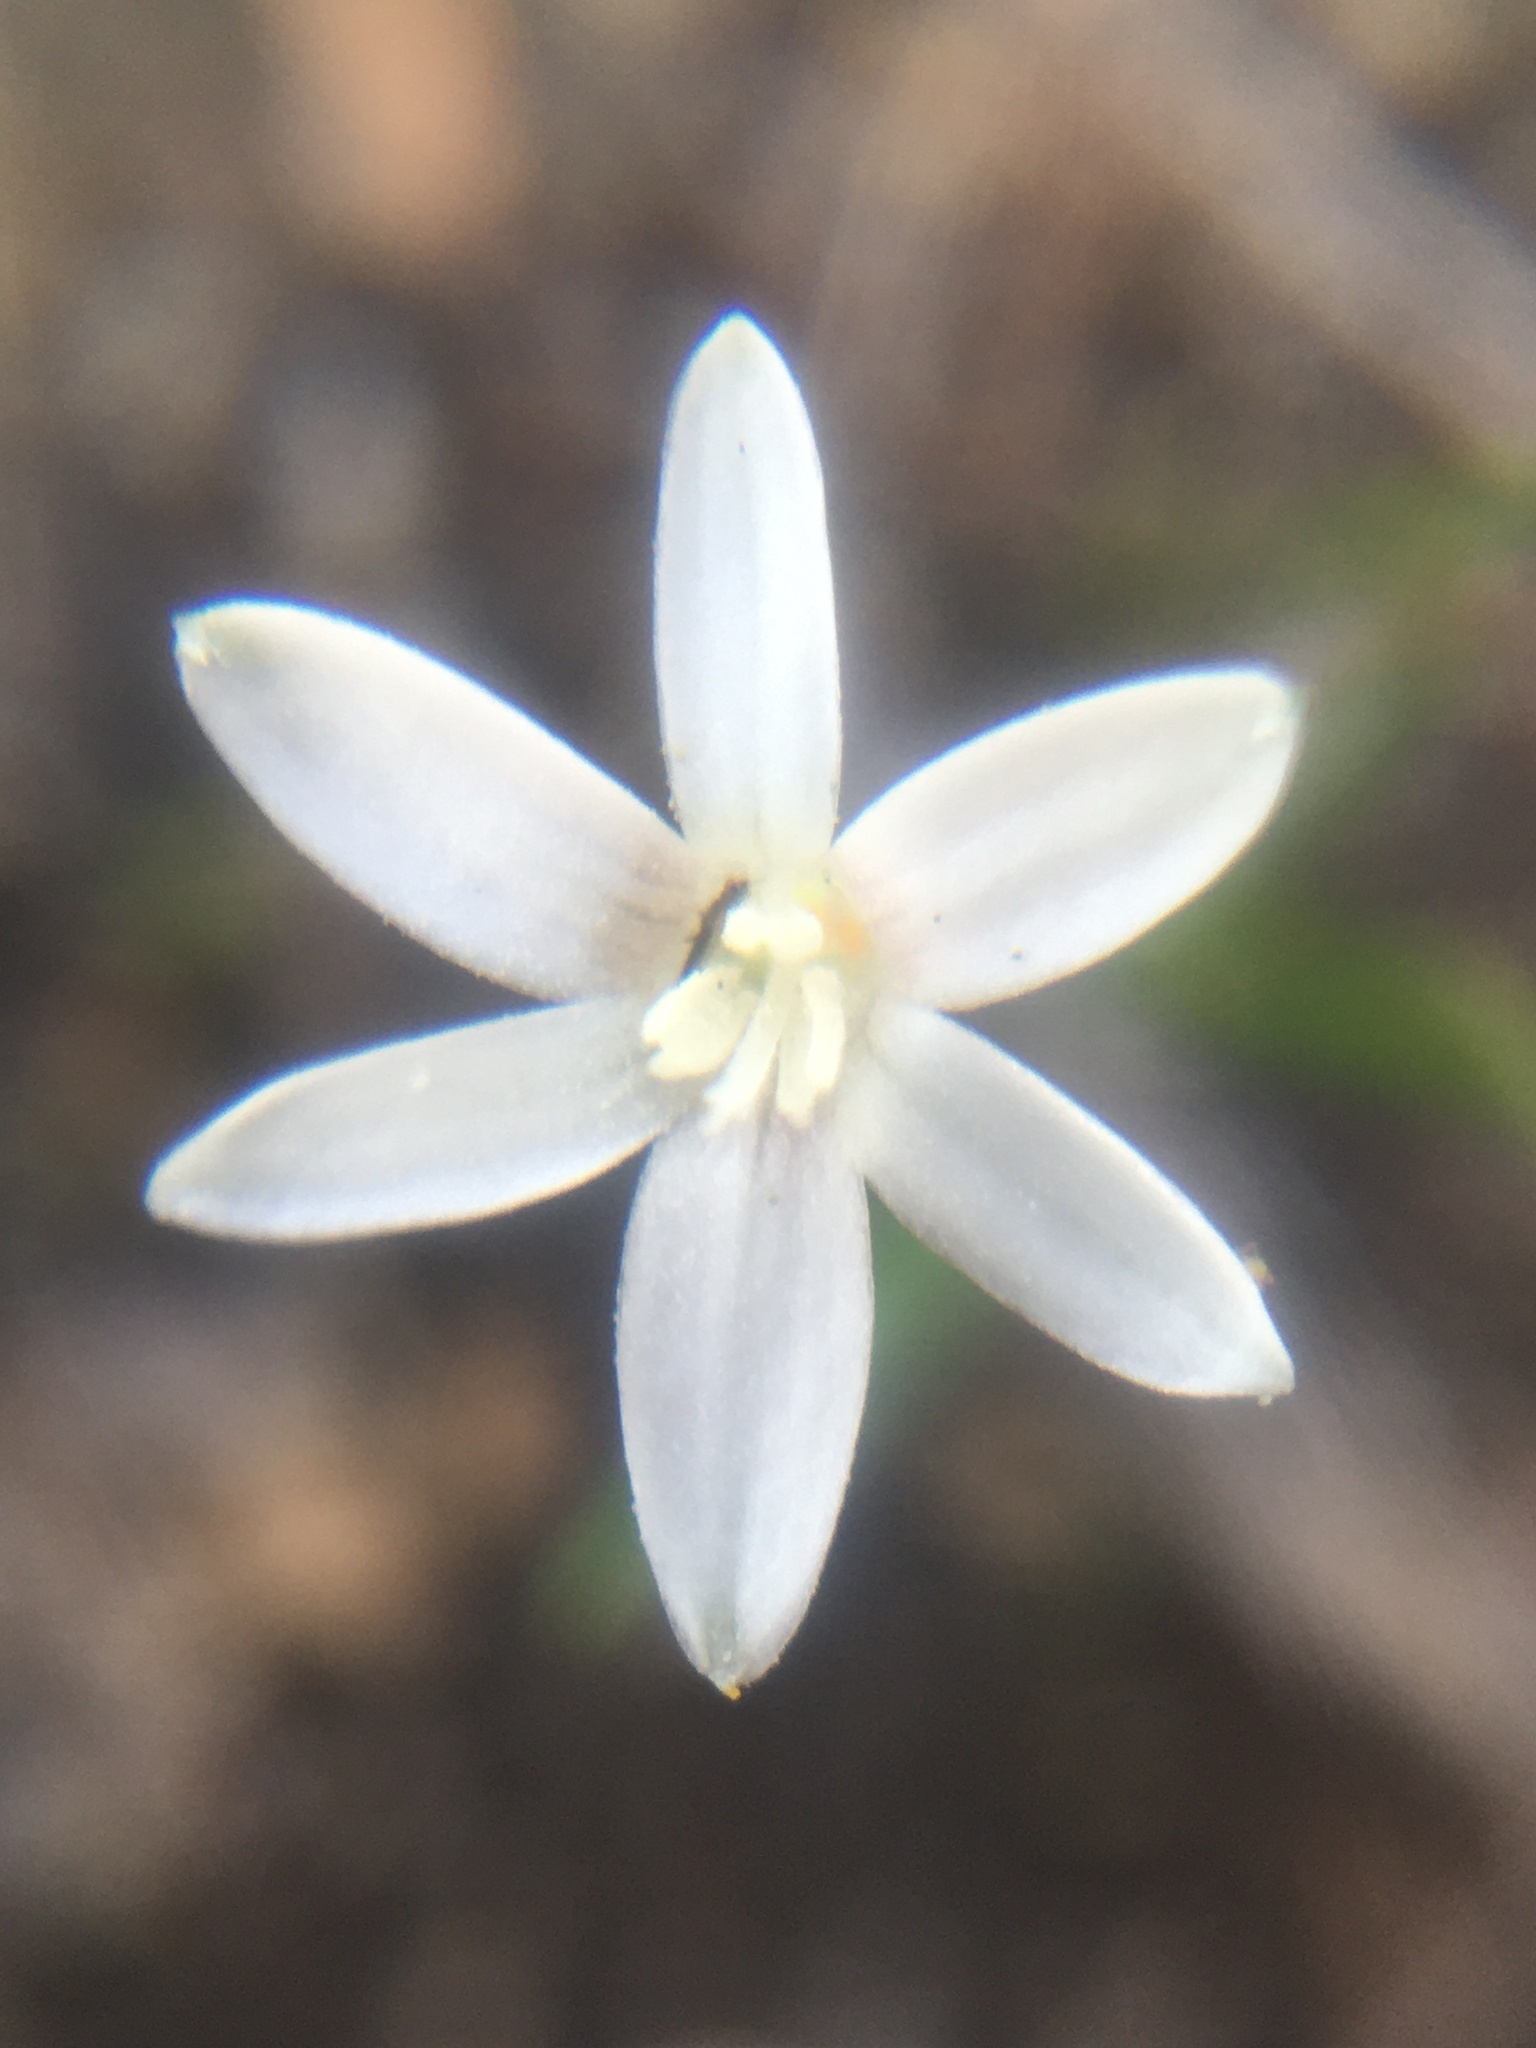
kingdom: Plantae
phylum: Tracheophyta
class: Liliopsida
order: Asparagales
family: Hypoxidaceae
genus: Pauridia
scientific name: Pauridia minuta
